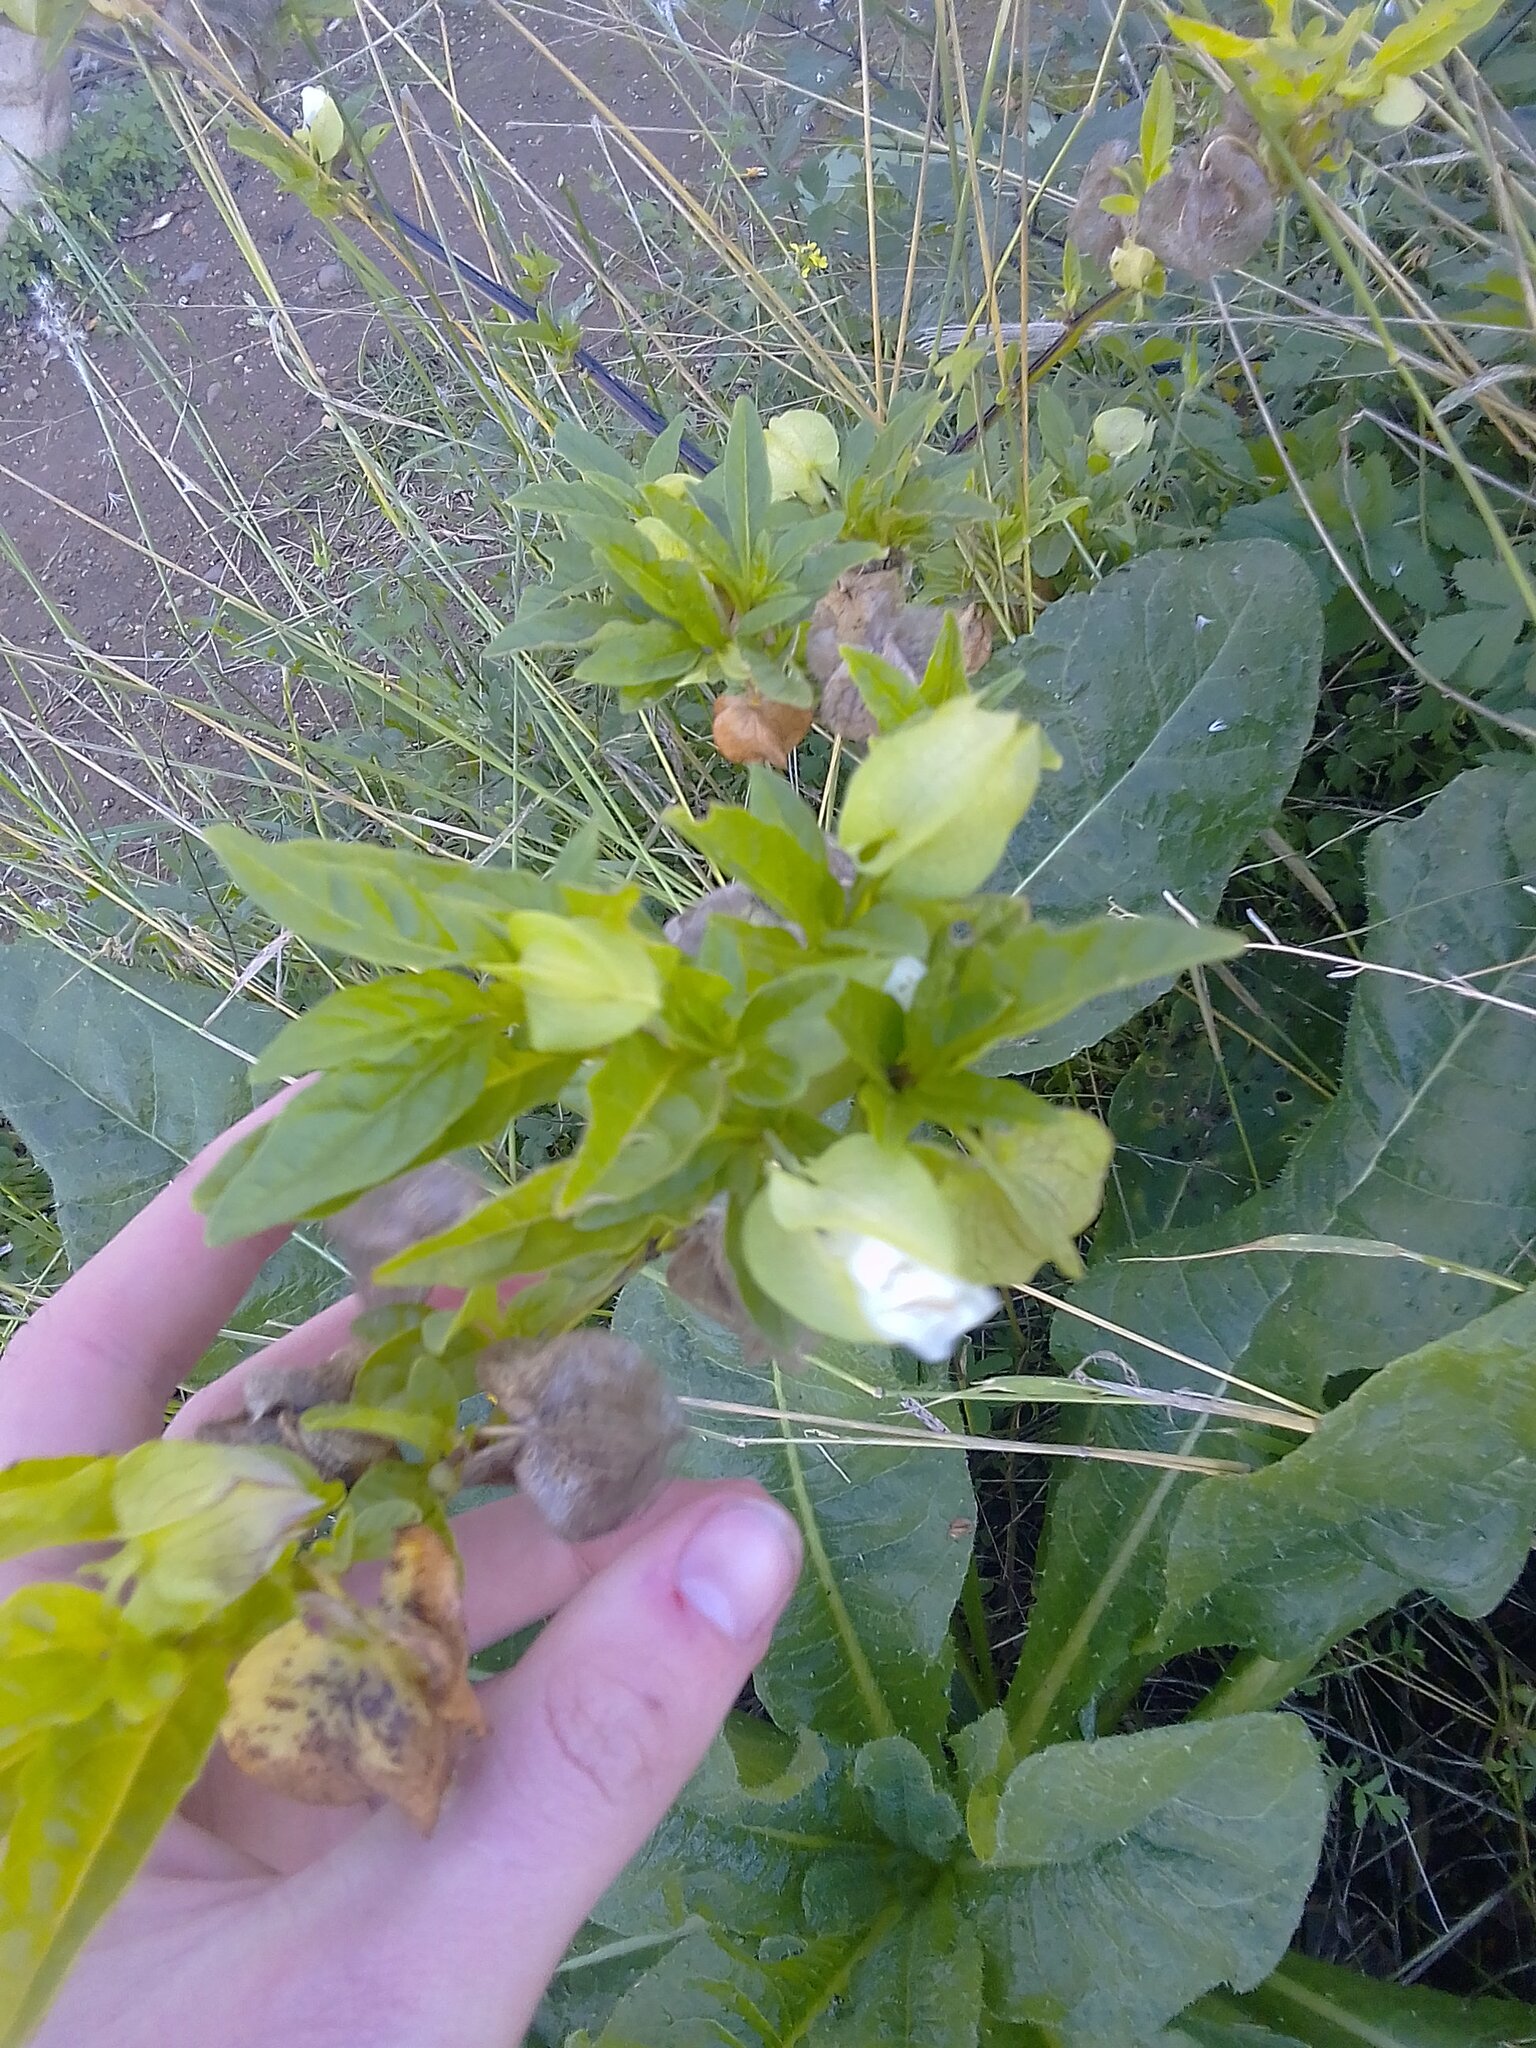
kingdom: Plantae
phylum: Tracheophyta
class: Magnoliopsida
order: Solanales
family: Solanaceae
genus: Nicandra
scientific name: Nicandra physalodes
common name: Apple-of-peru
